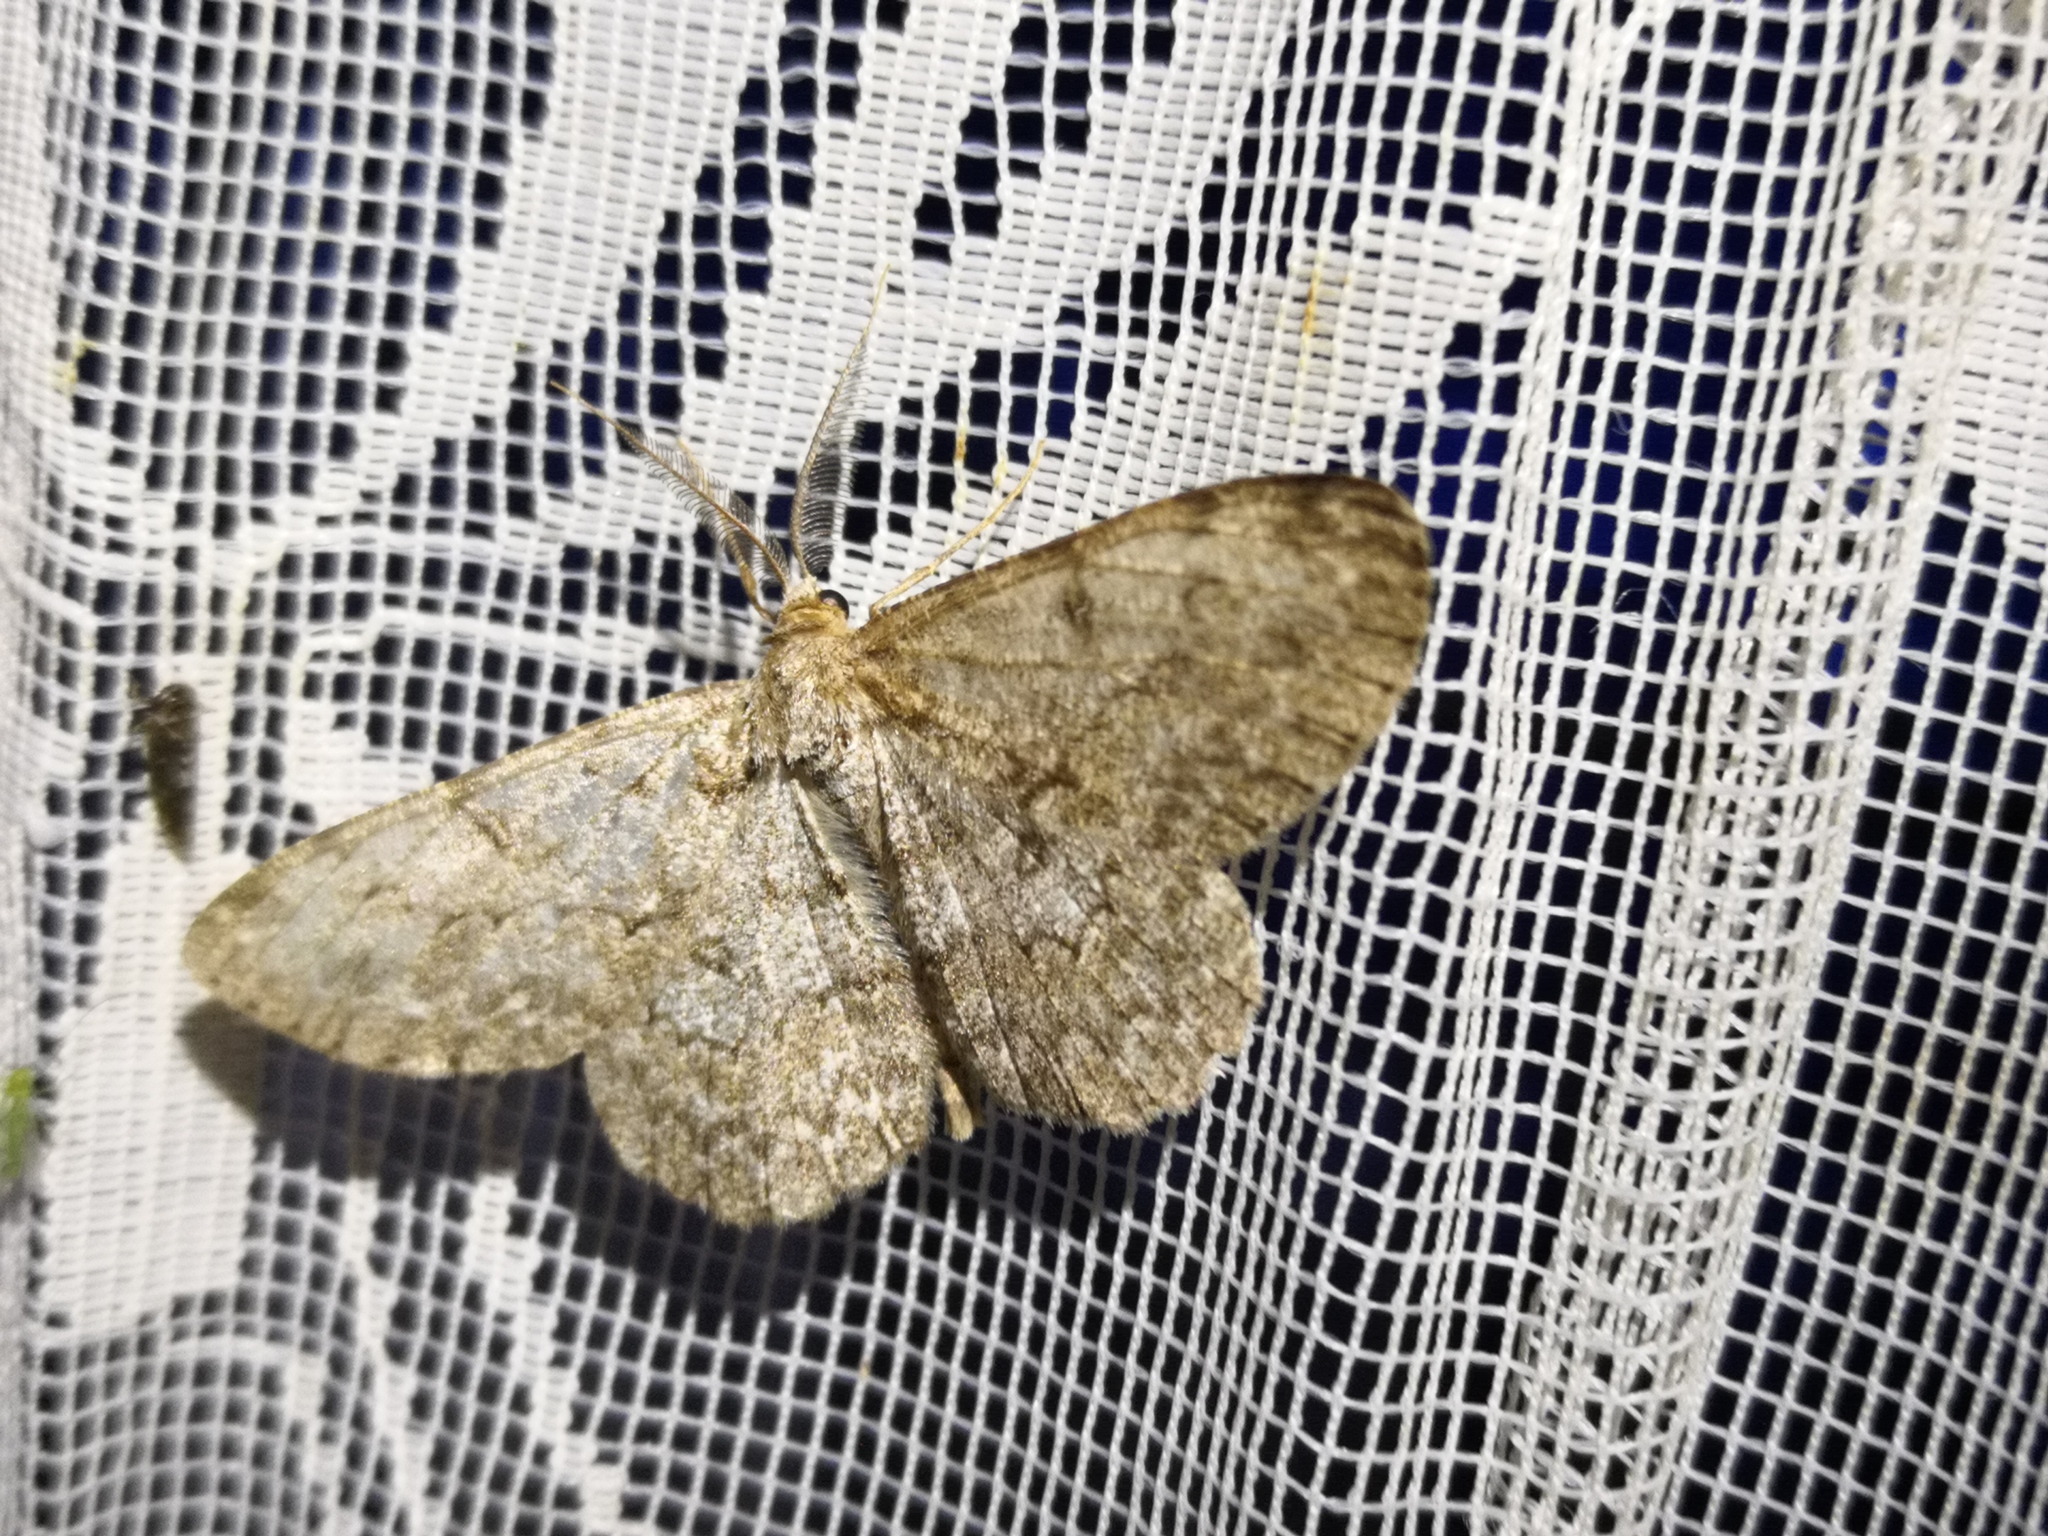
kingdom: Animalia
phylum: Arthropoda
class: Insecta
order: Lepidoptera
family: Geometridae
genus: Hypomecis
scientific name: Hypomecis punctinalis
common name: Pale oak beauty
